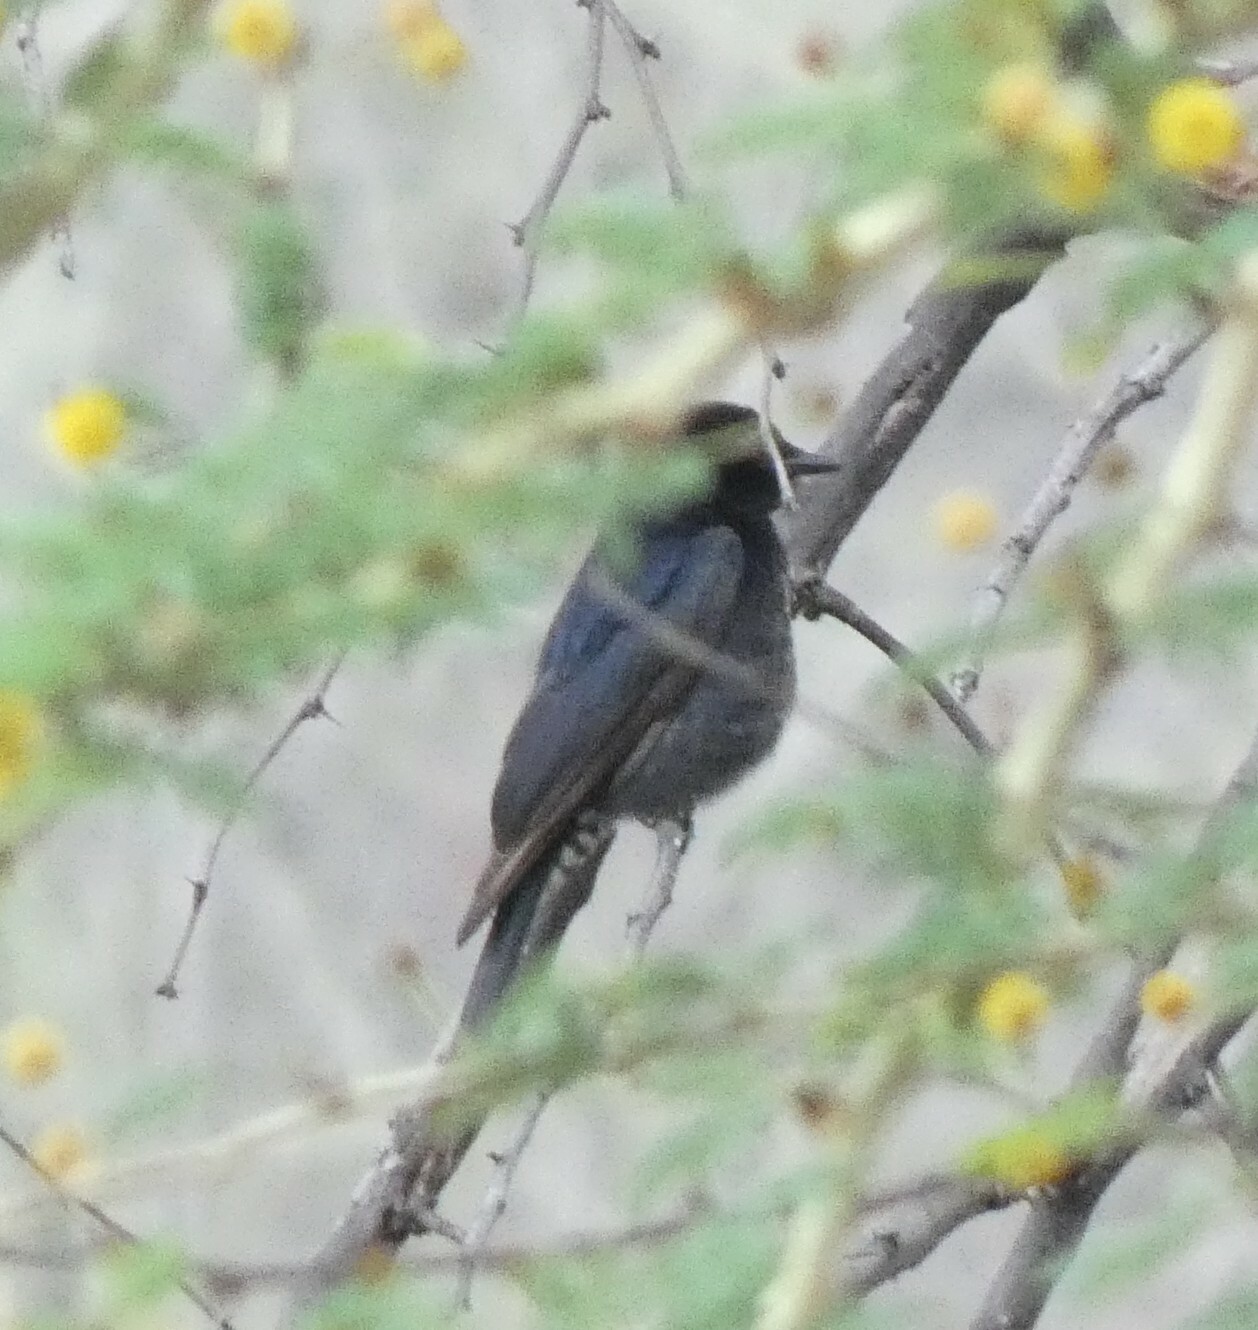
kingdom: Animalia
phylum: Chordata
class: Aves
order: Passeriformes
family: Dicruridae
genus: Dicrurus
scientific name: Dicrurus adsimilis
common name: Fork-tailed drongo
